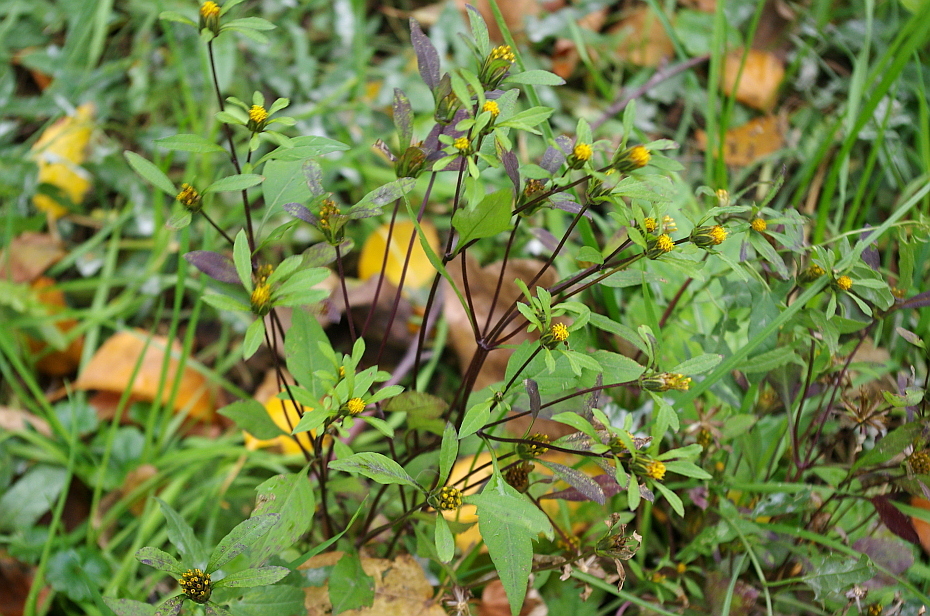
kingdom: Plantae
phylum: Tracheophyta
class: Magnoliopsida
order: Asterales
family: Asteraceae
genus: Bidens
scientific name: Bidens frondosa
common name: Beggarticks
